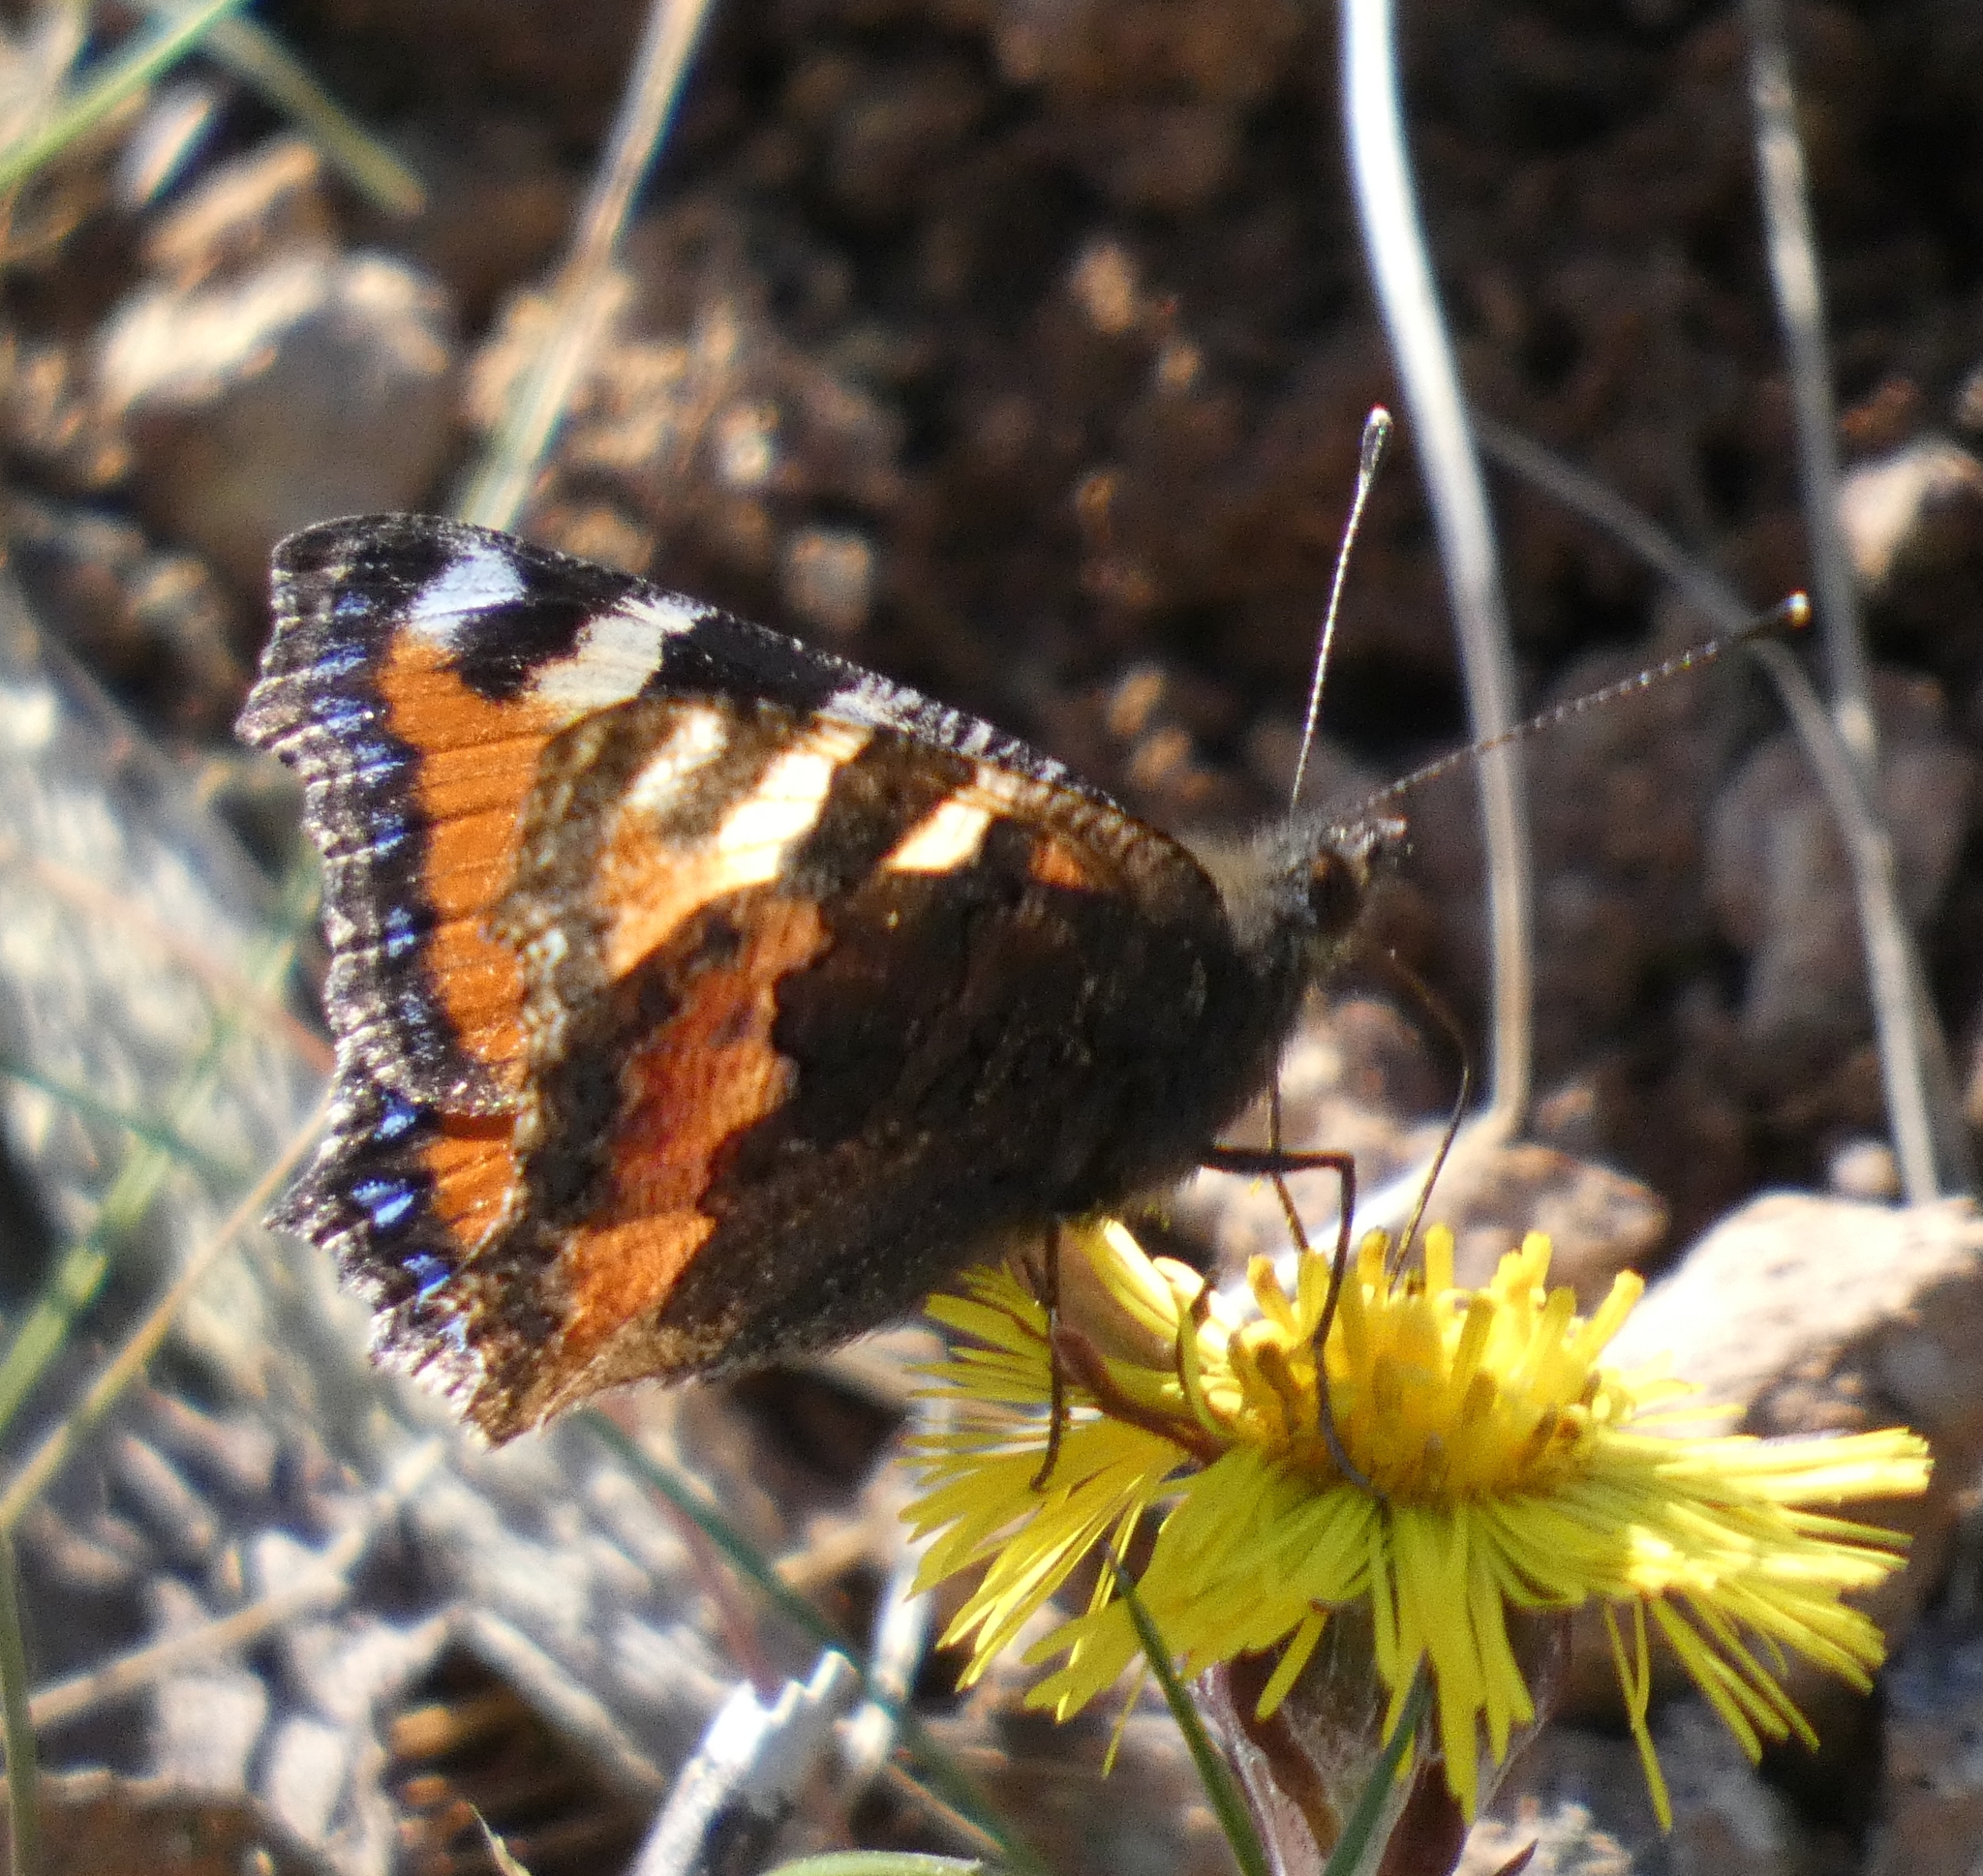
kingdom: Animalia
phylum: Arthropoda
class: Insecta
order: Lepidoptera
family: Nymphalidae
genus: Aglais
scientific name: Aglais urticae
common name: Small tortoiseshell
